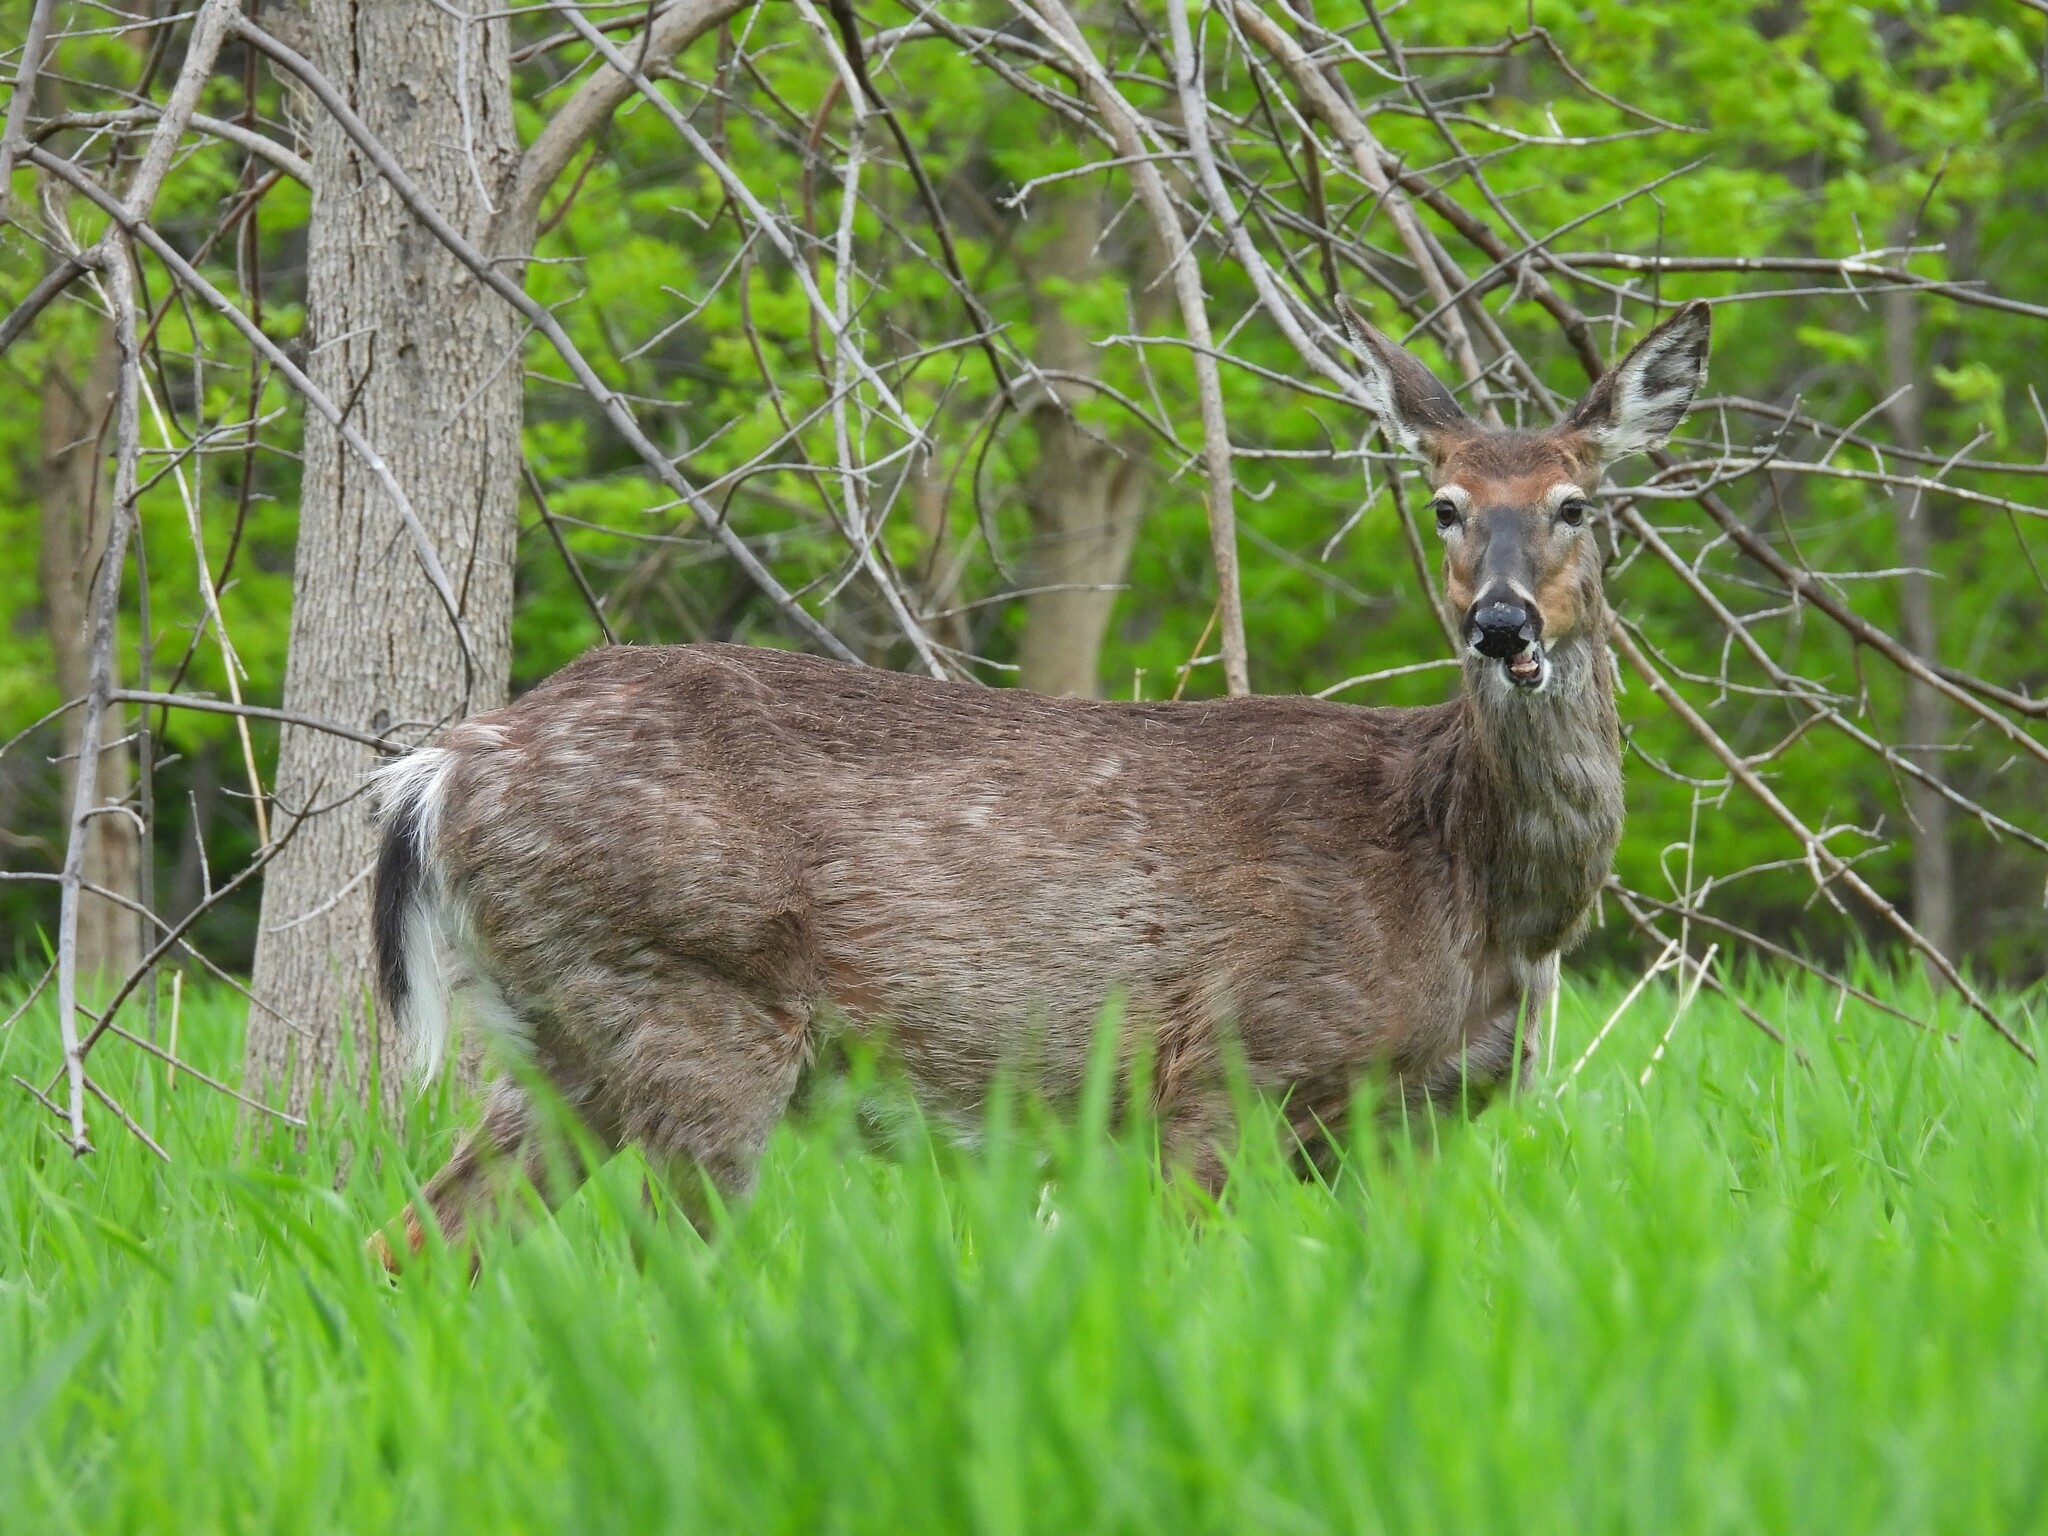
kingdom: Animalia
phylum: Chordata
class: Mammalia
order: Artiodactyla
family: Cervidae
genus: Odocoileus
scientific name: Odocoileus virginianus
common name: White-tailed deer
